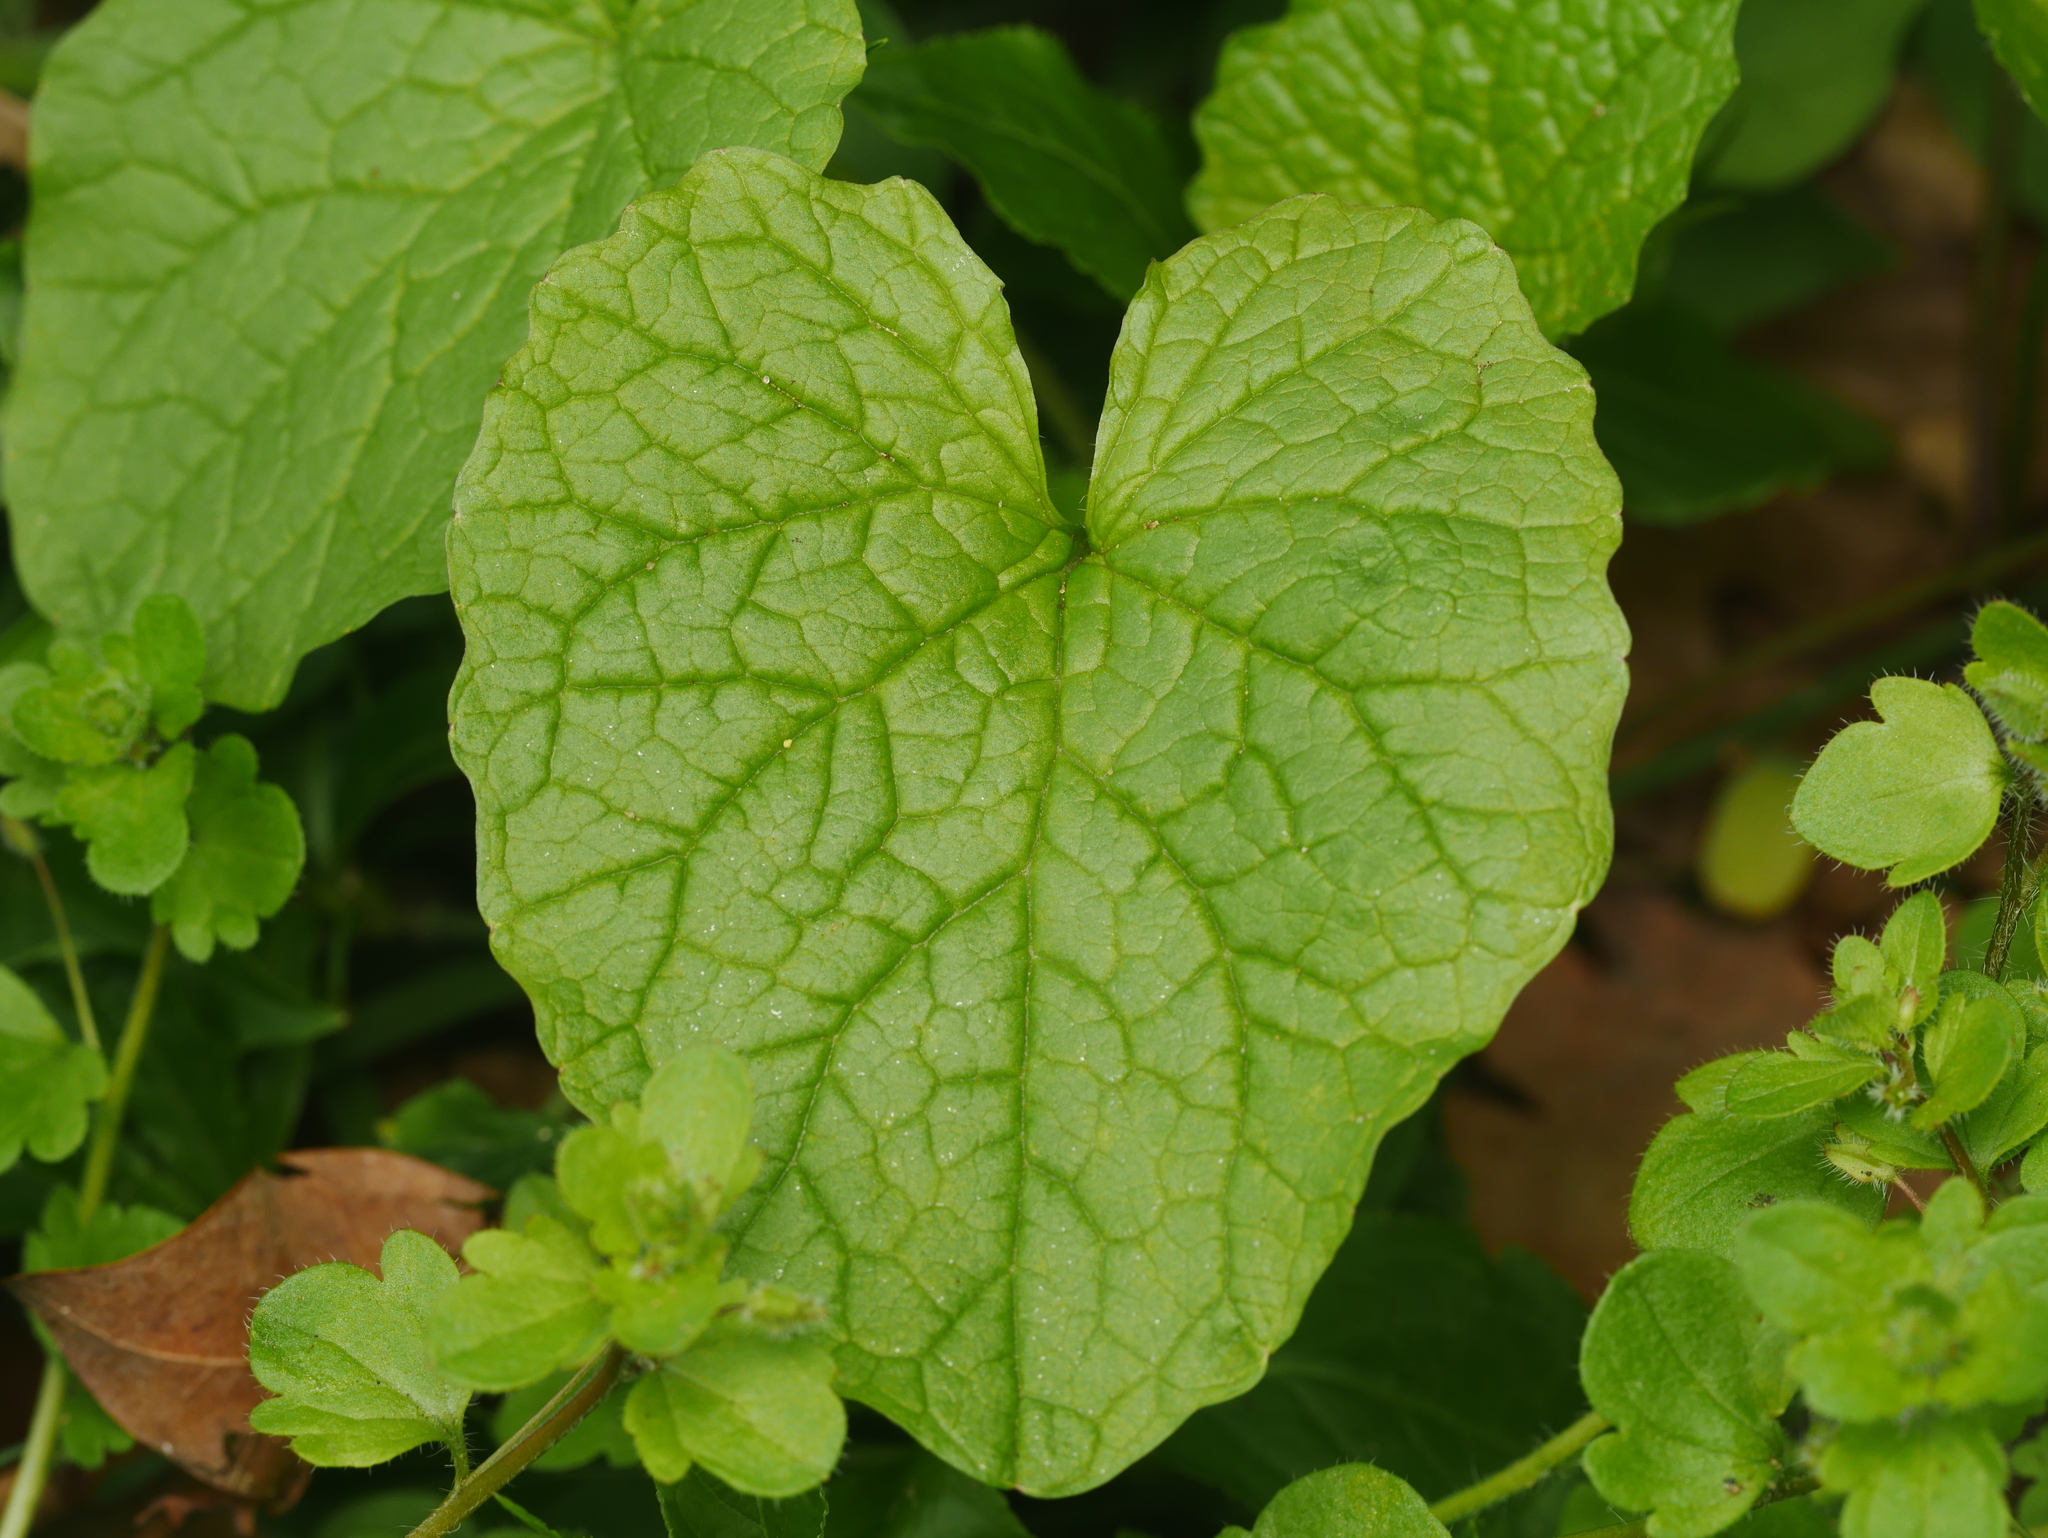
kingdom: Plantae
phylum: Tracheophyta
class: Magnoliopsida
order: Brassicales
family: Brassicaceae
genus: Alliaria
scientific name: Alliaria petiolata
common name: Garlic mustard
